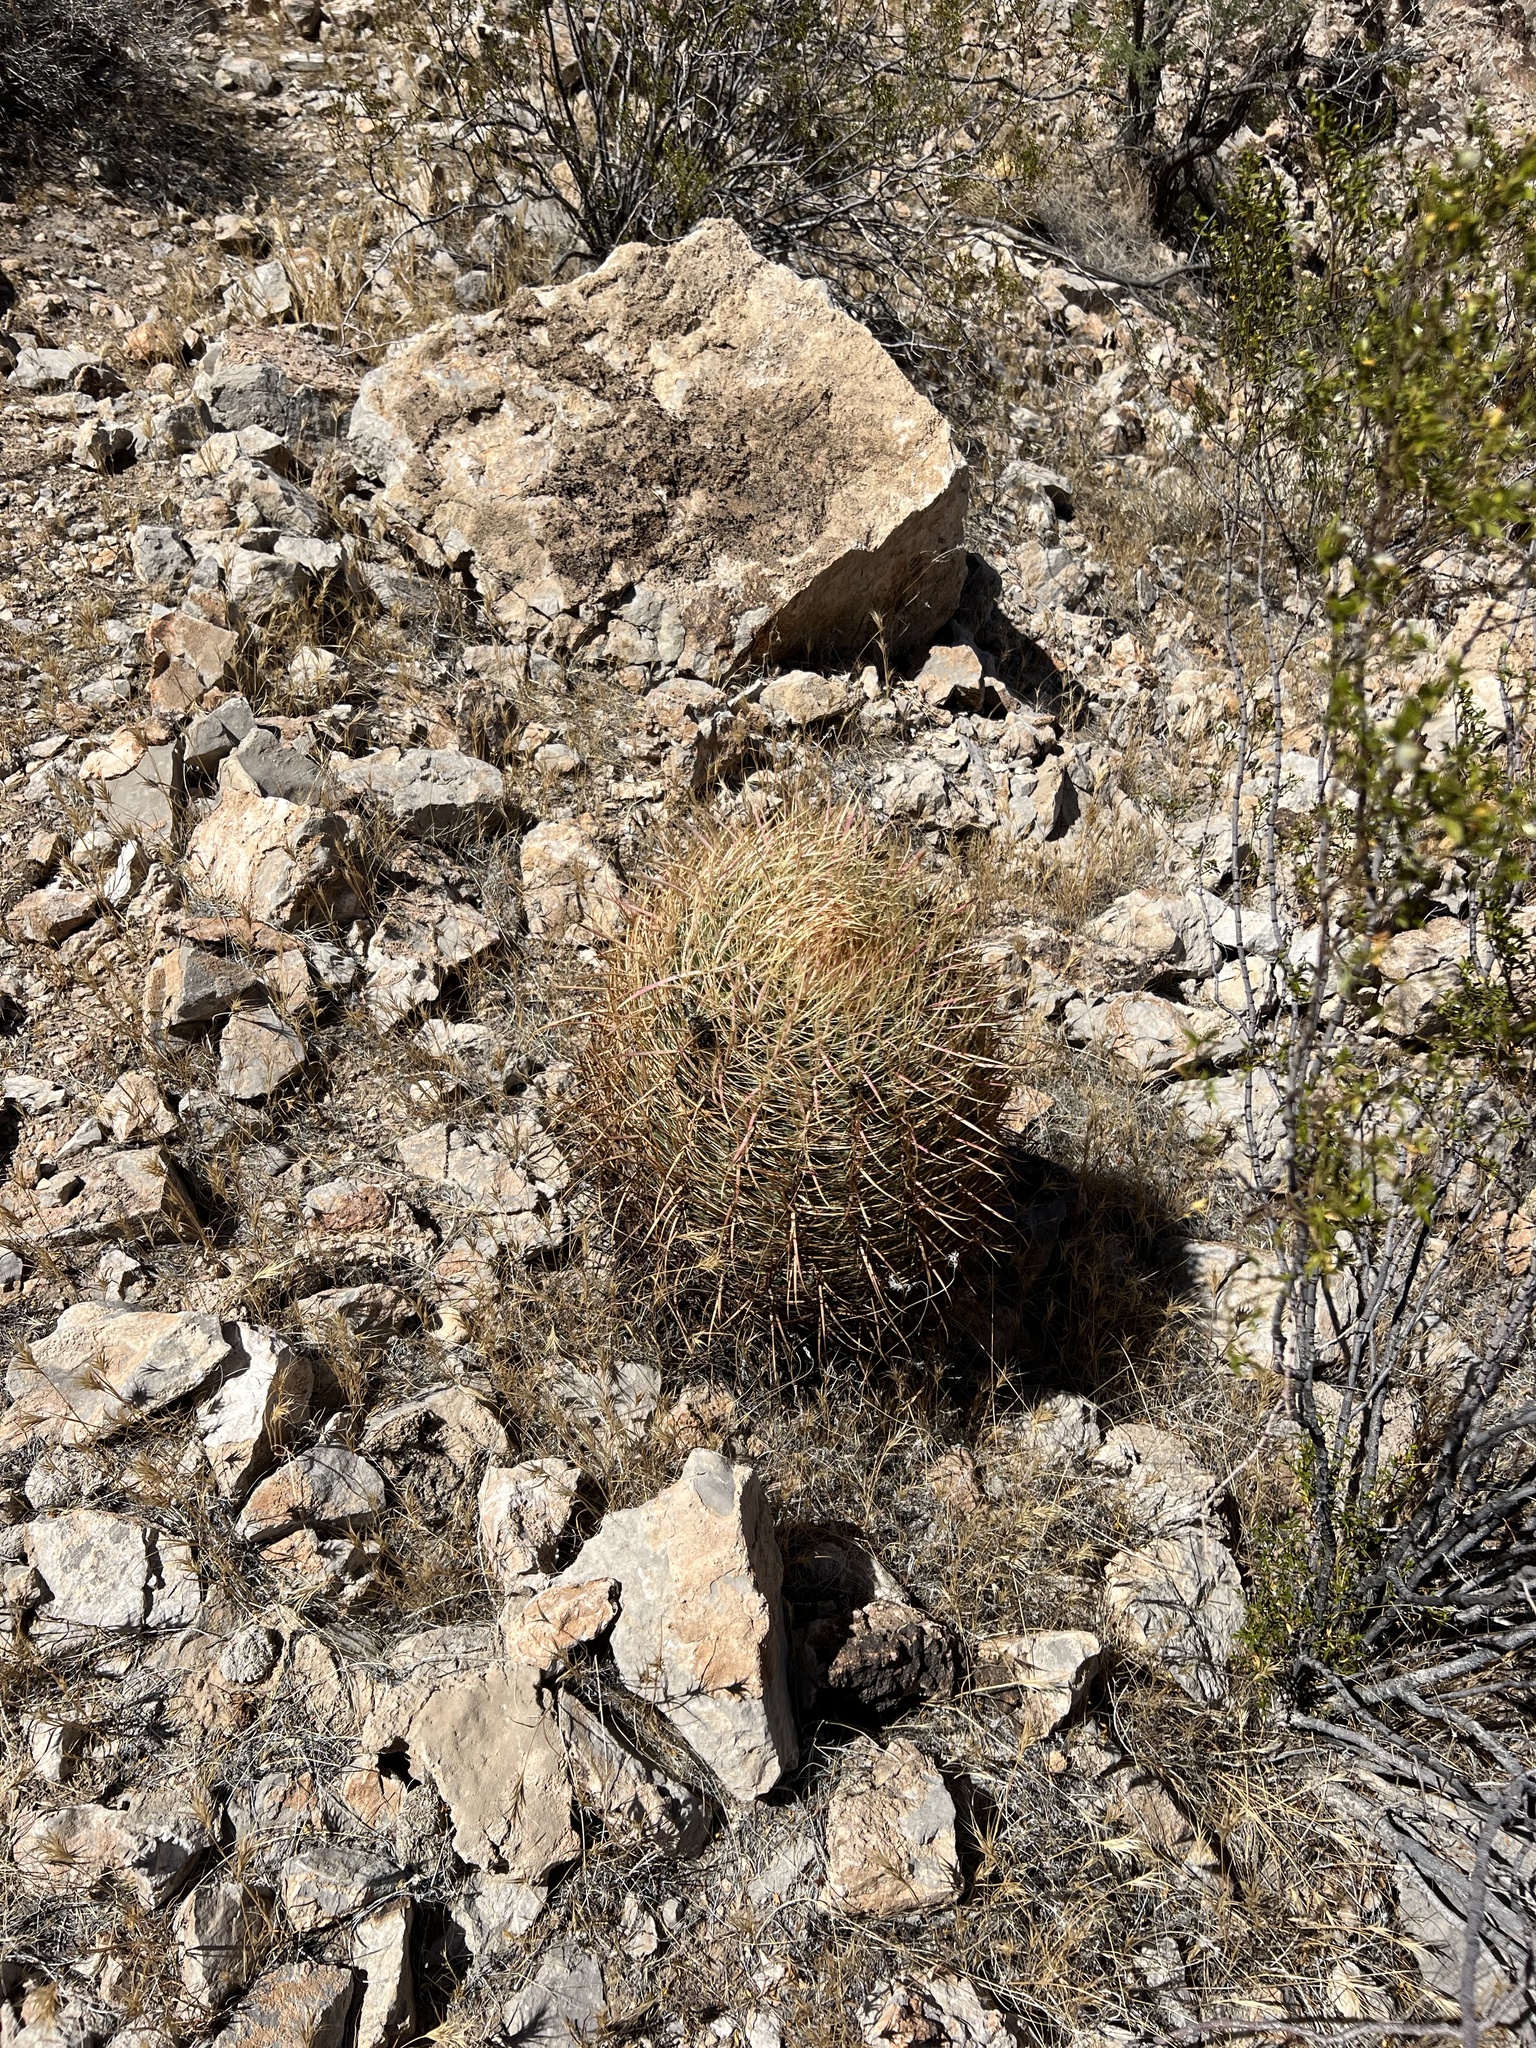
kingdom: Plantae
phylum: Tracheophyta
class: Magnoliopsida
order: Caryophyllales
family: Cactaceae
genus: Ferocactus
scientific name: Ferocactus cylindraceus
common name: California barrel cactus
